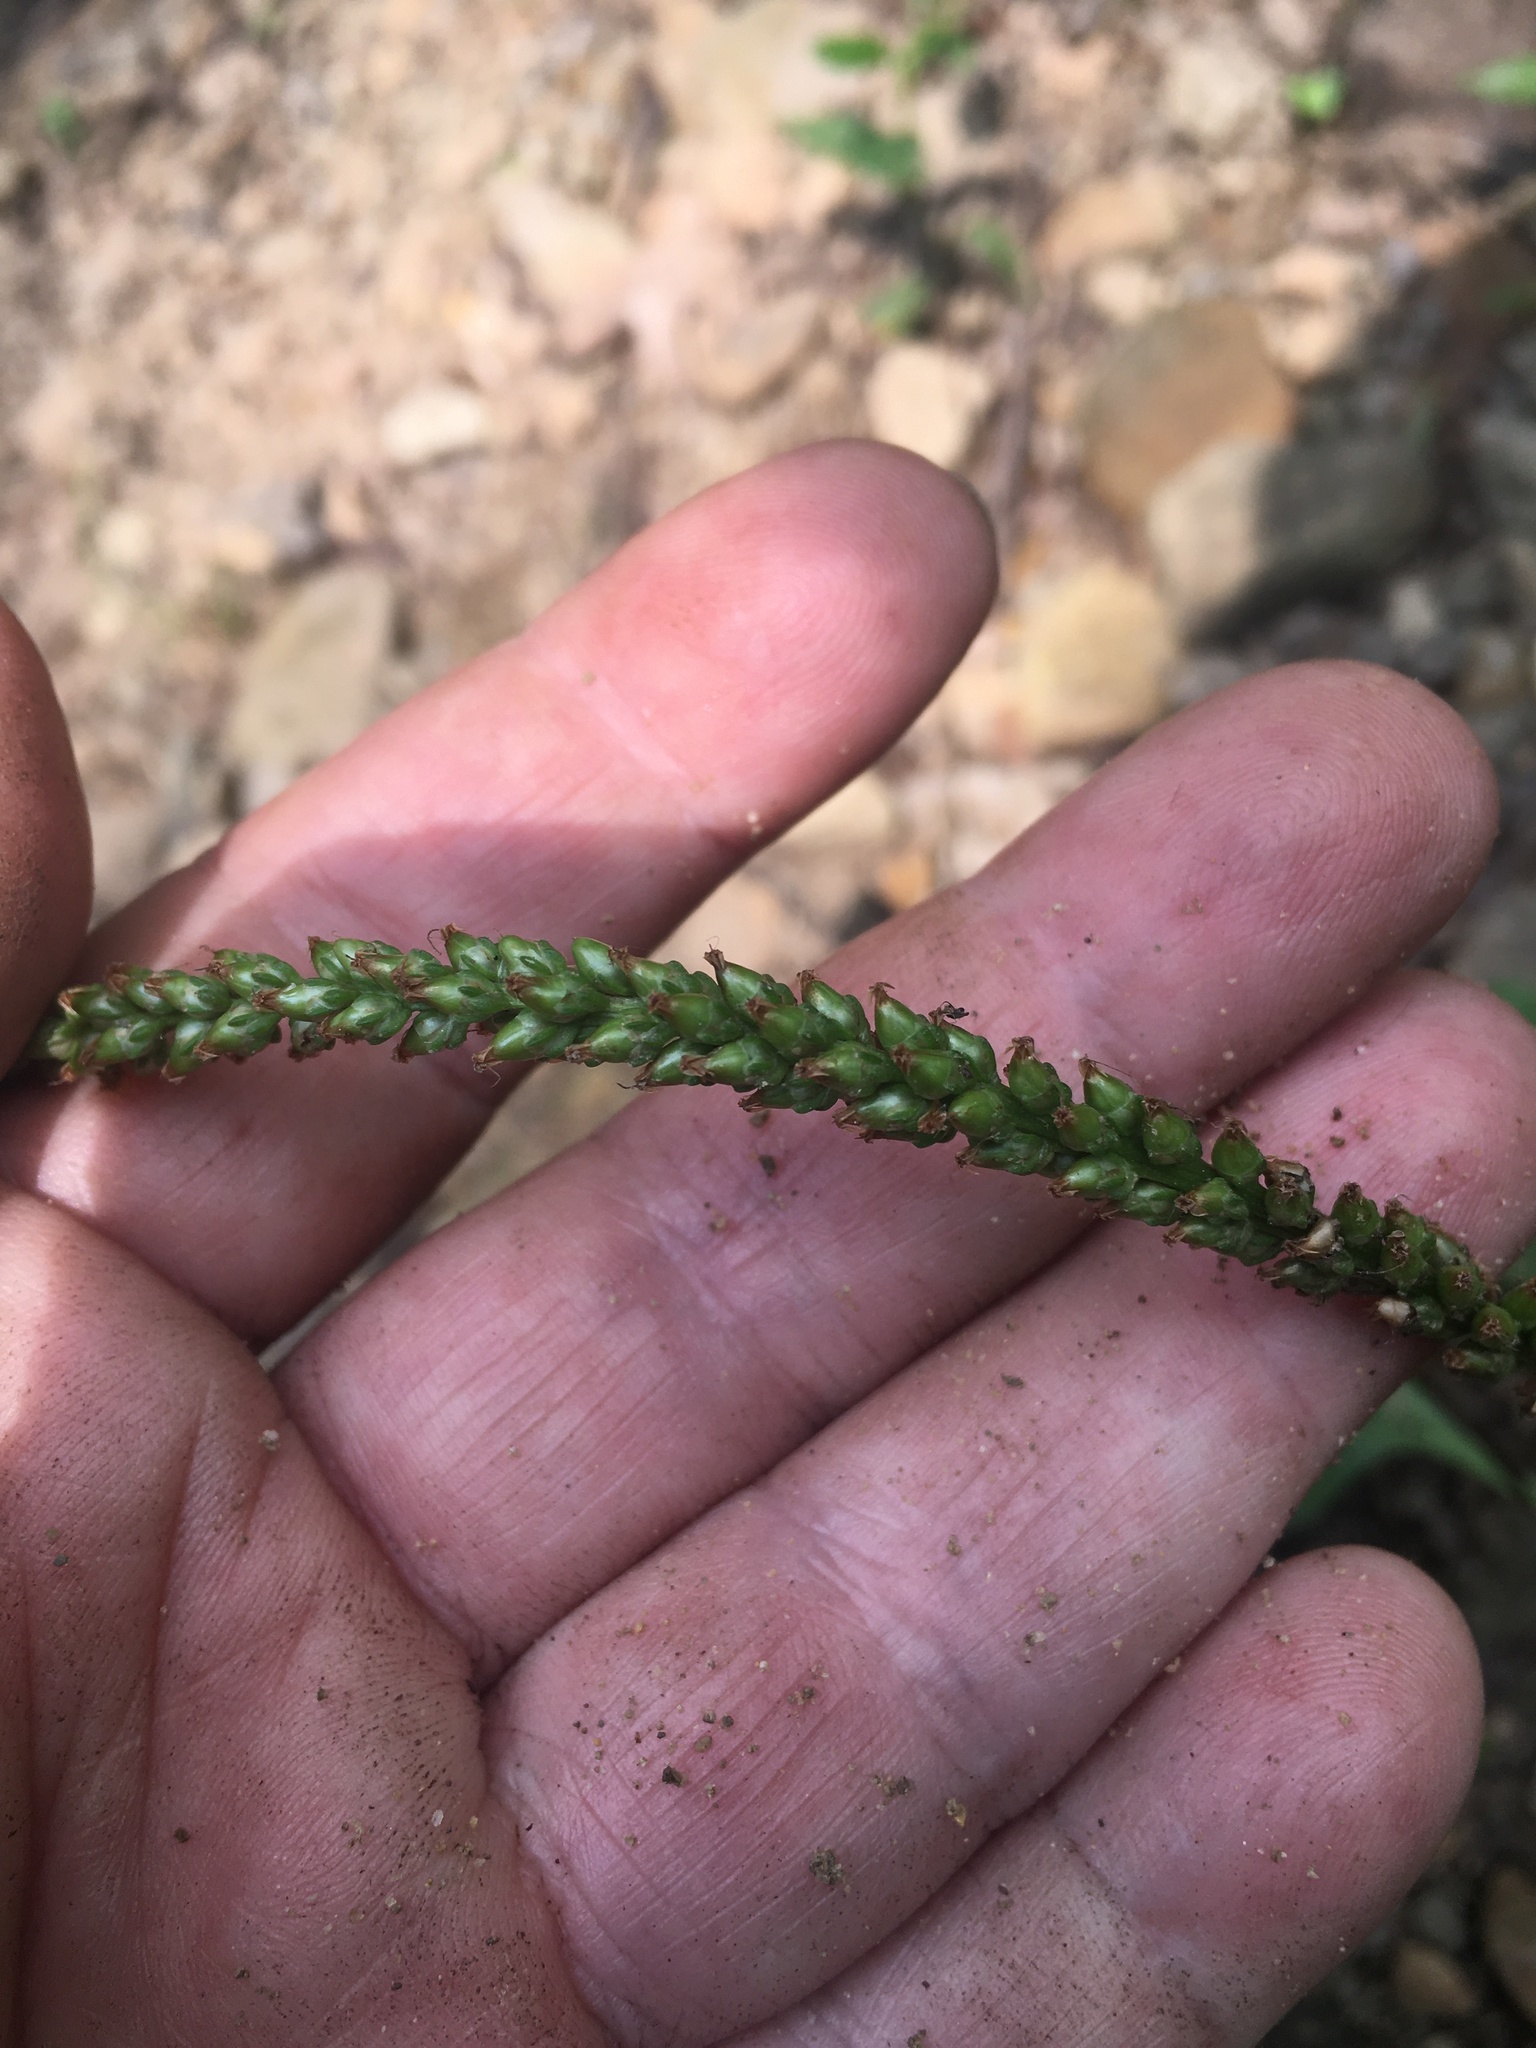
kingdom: Plantae
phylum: Tracheophyta
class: Magnoliopsida
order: Lamiales
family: Plantaginaceae
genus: Plantago
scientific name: Plantago major
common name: Common plantain
